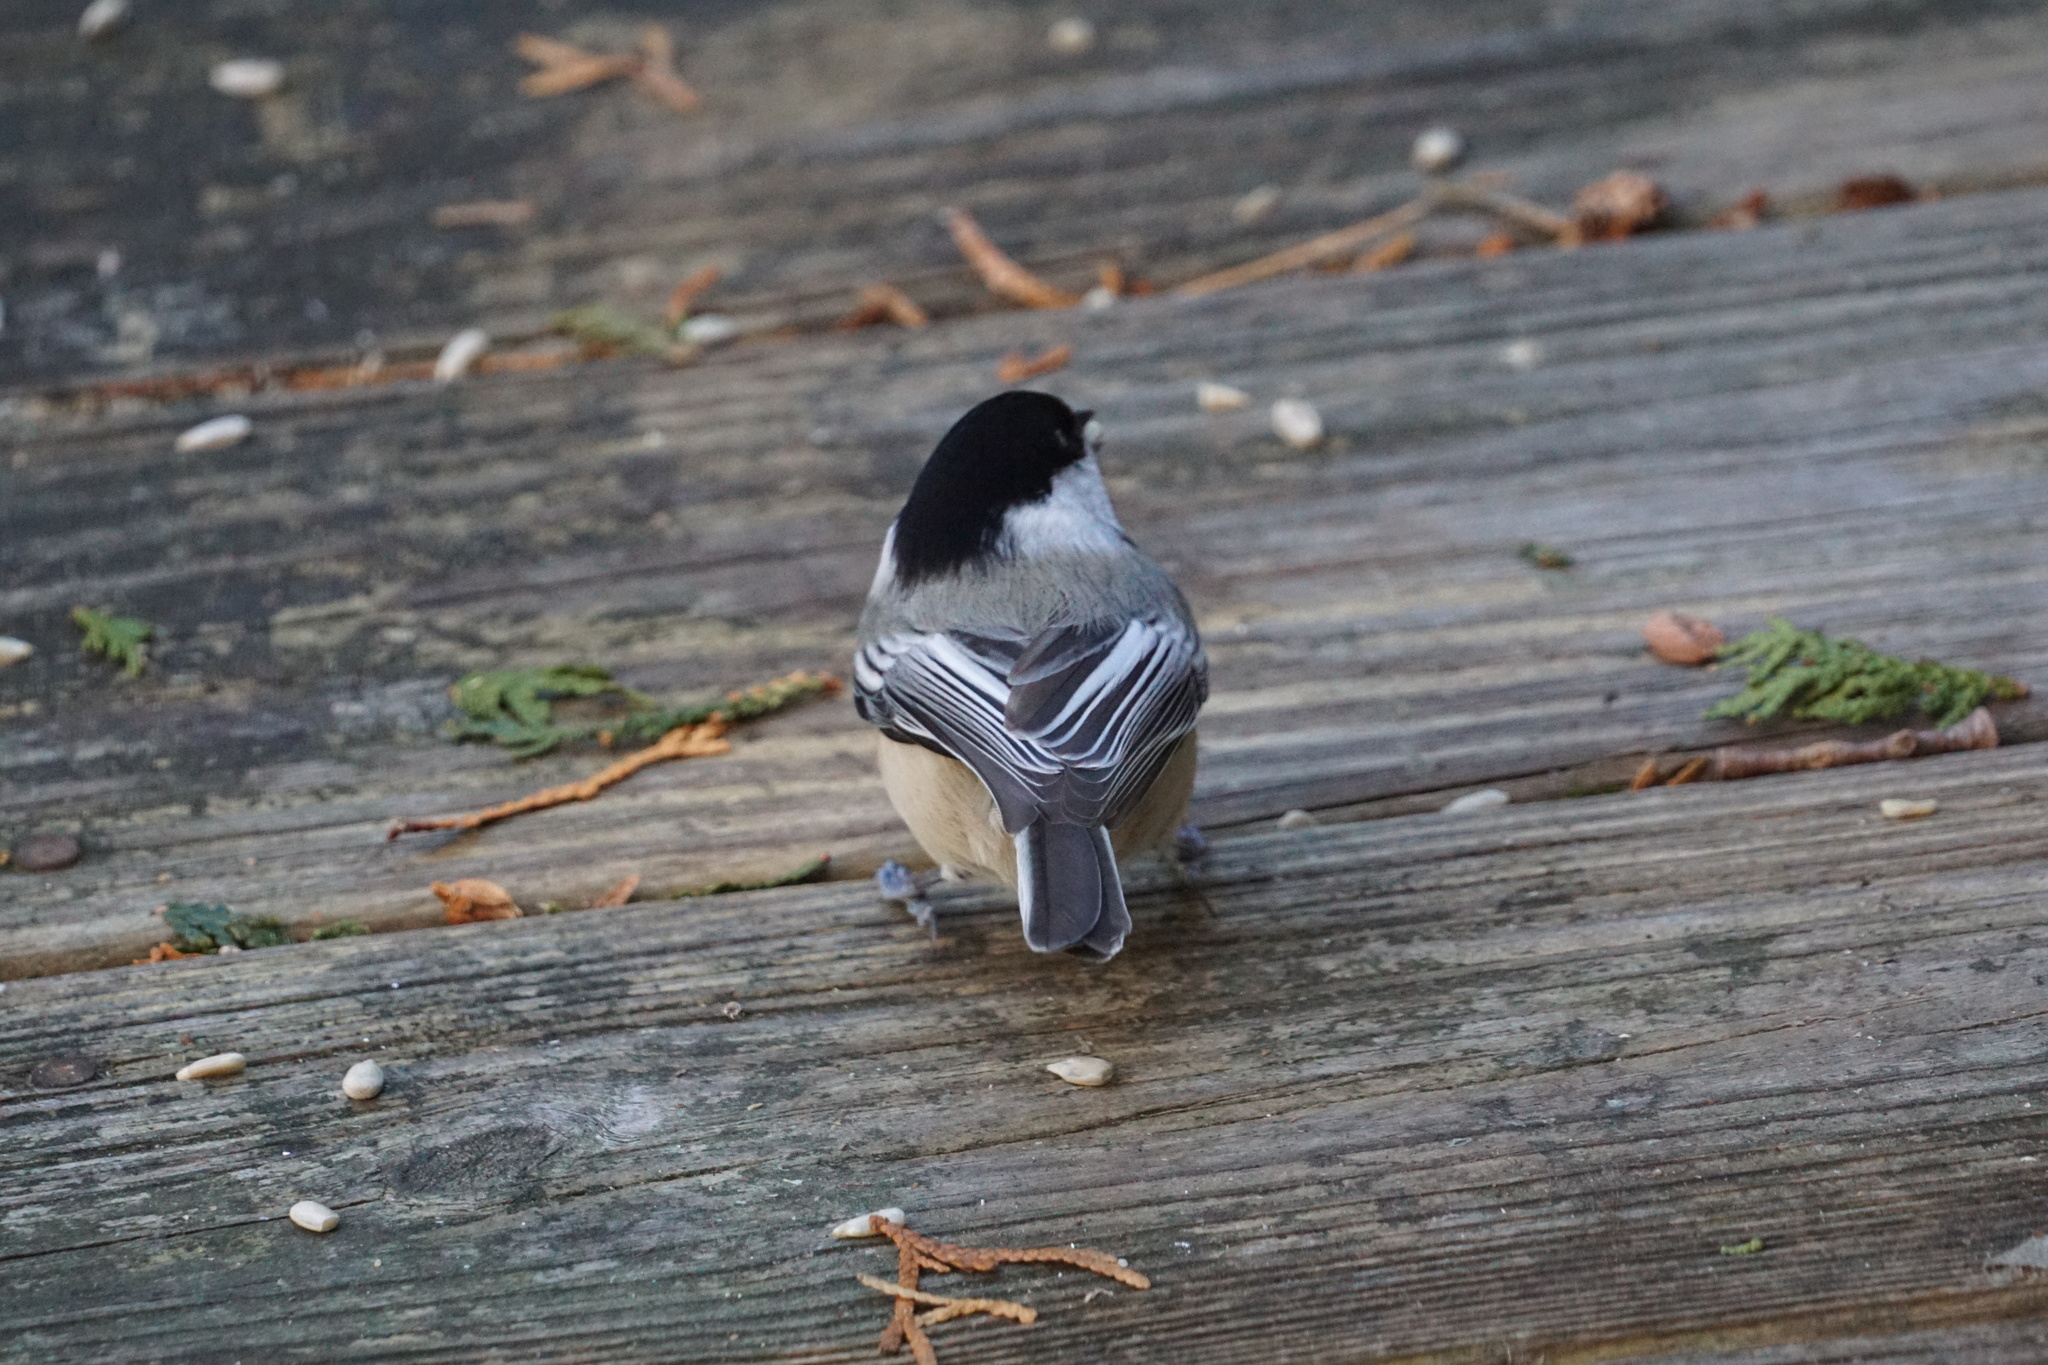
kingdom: Animalia
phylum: Chordata
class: Aves
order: Passeriformes
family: Paridae
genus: Poecile
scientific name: Poecile atricapillus
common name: Black-capped chickadee
